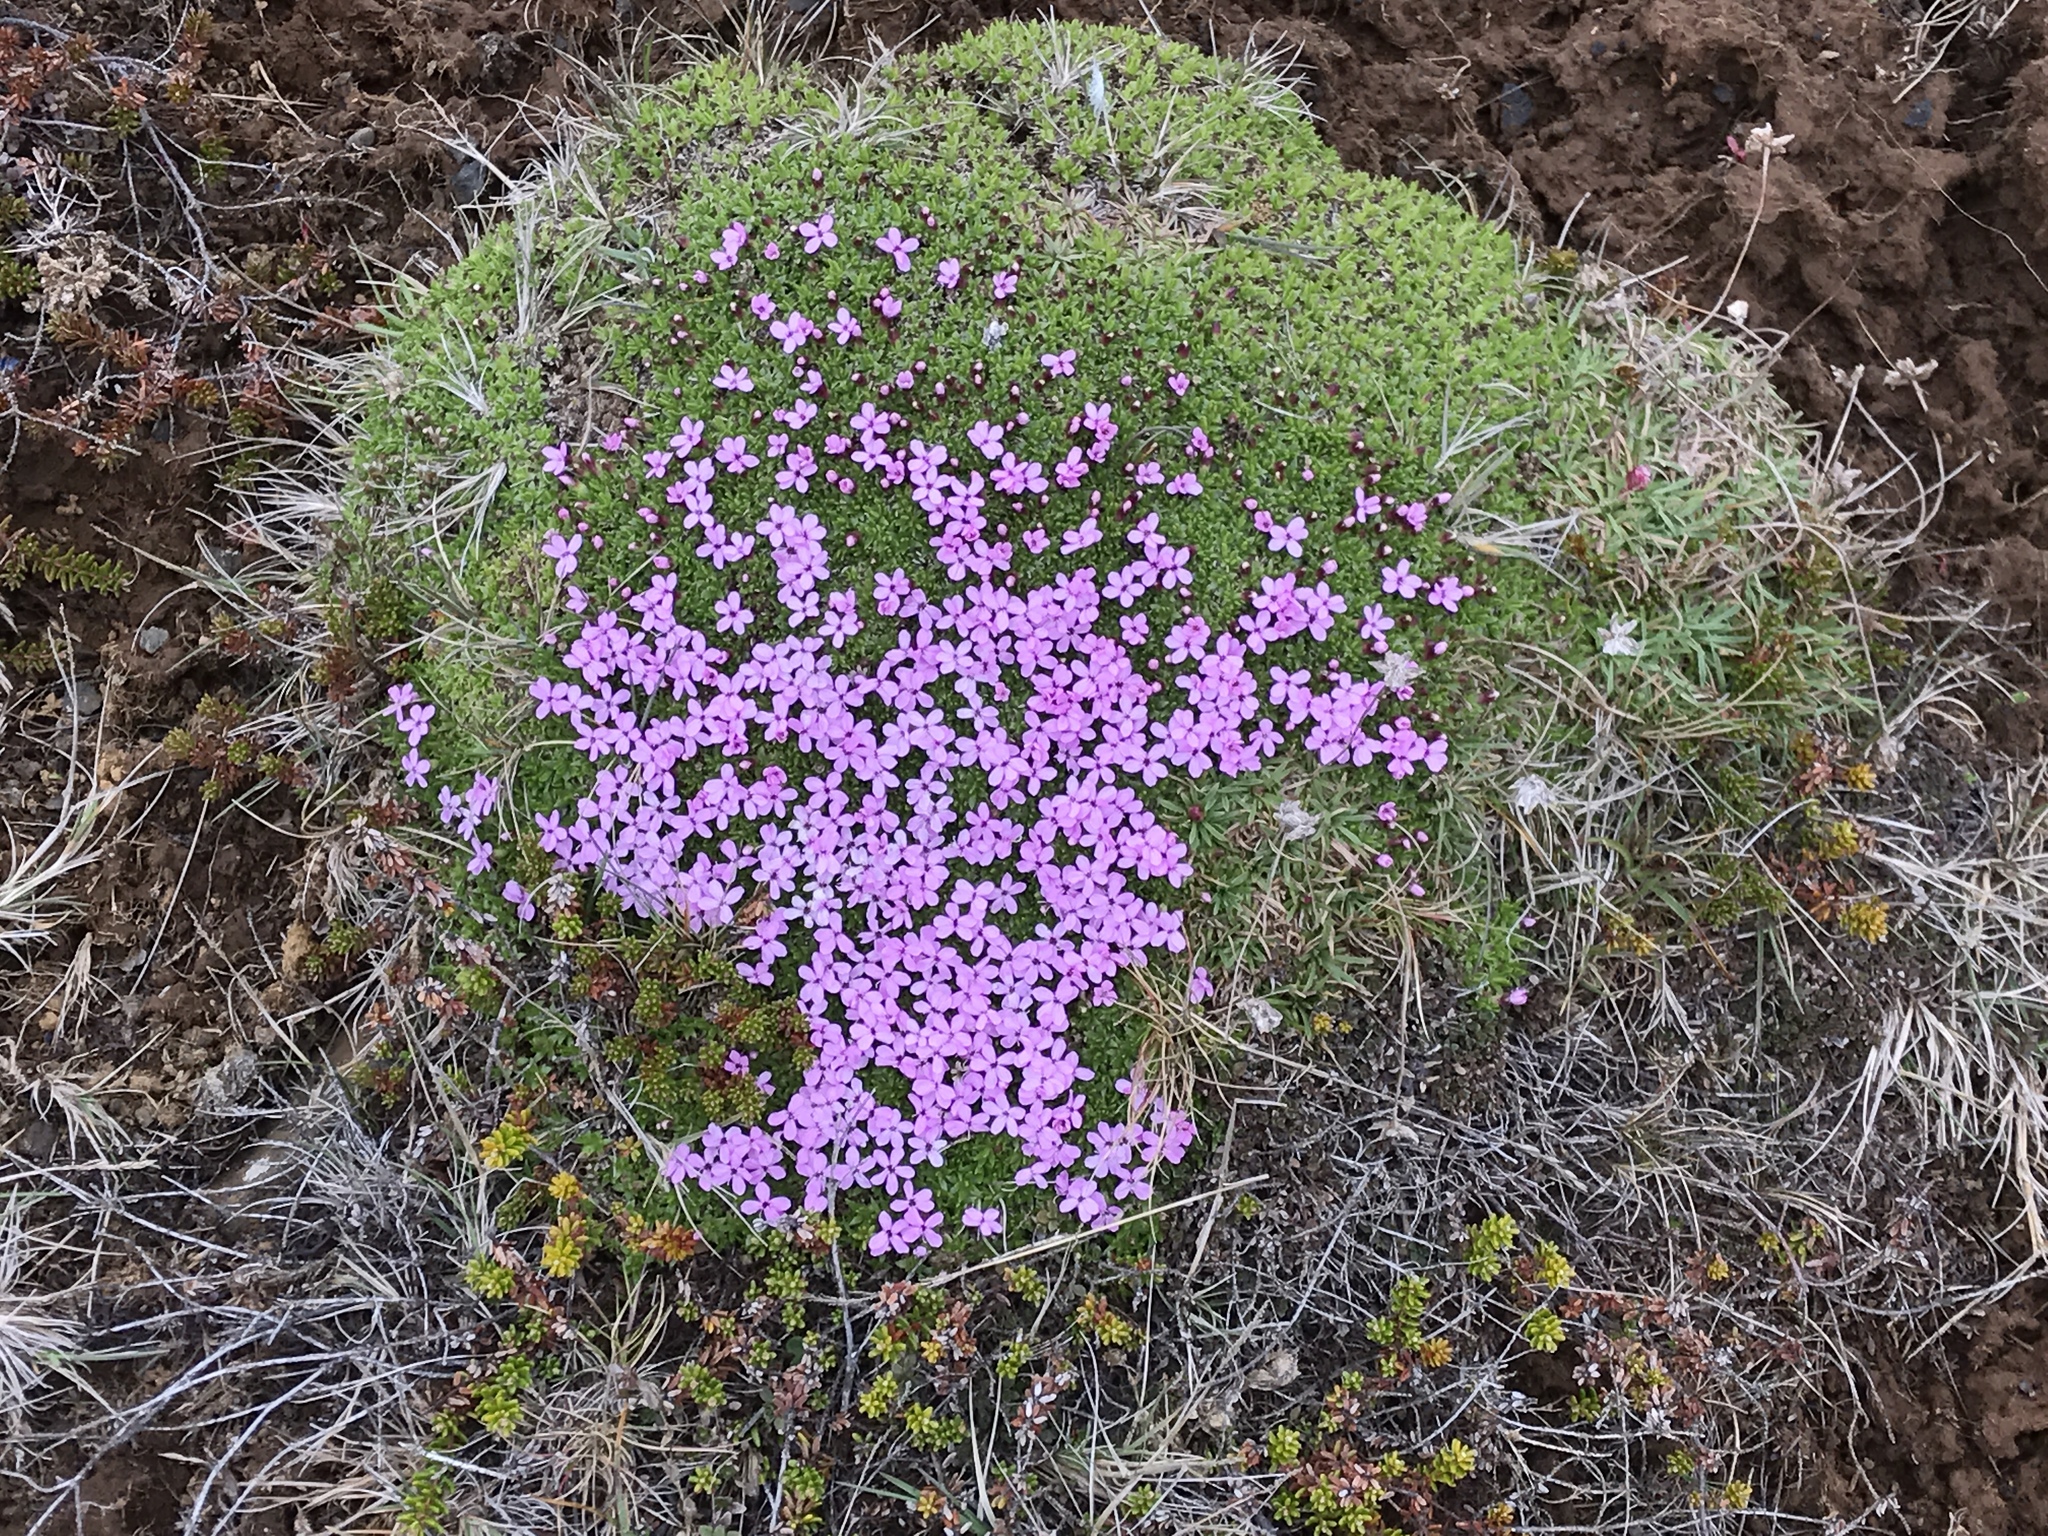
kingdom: Plantae
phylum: Tracheophyta
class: Magnoliopsida
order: Caryophyllales
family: Caryophyllaceae
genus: Silene
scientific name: Silene acaulis
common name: Moss campion
